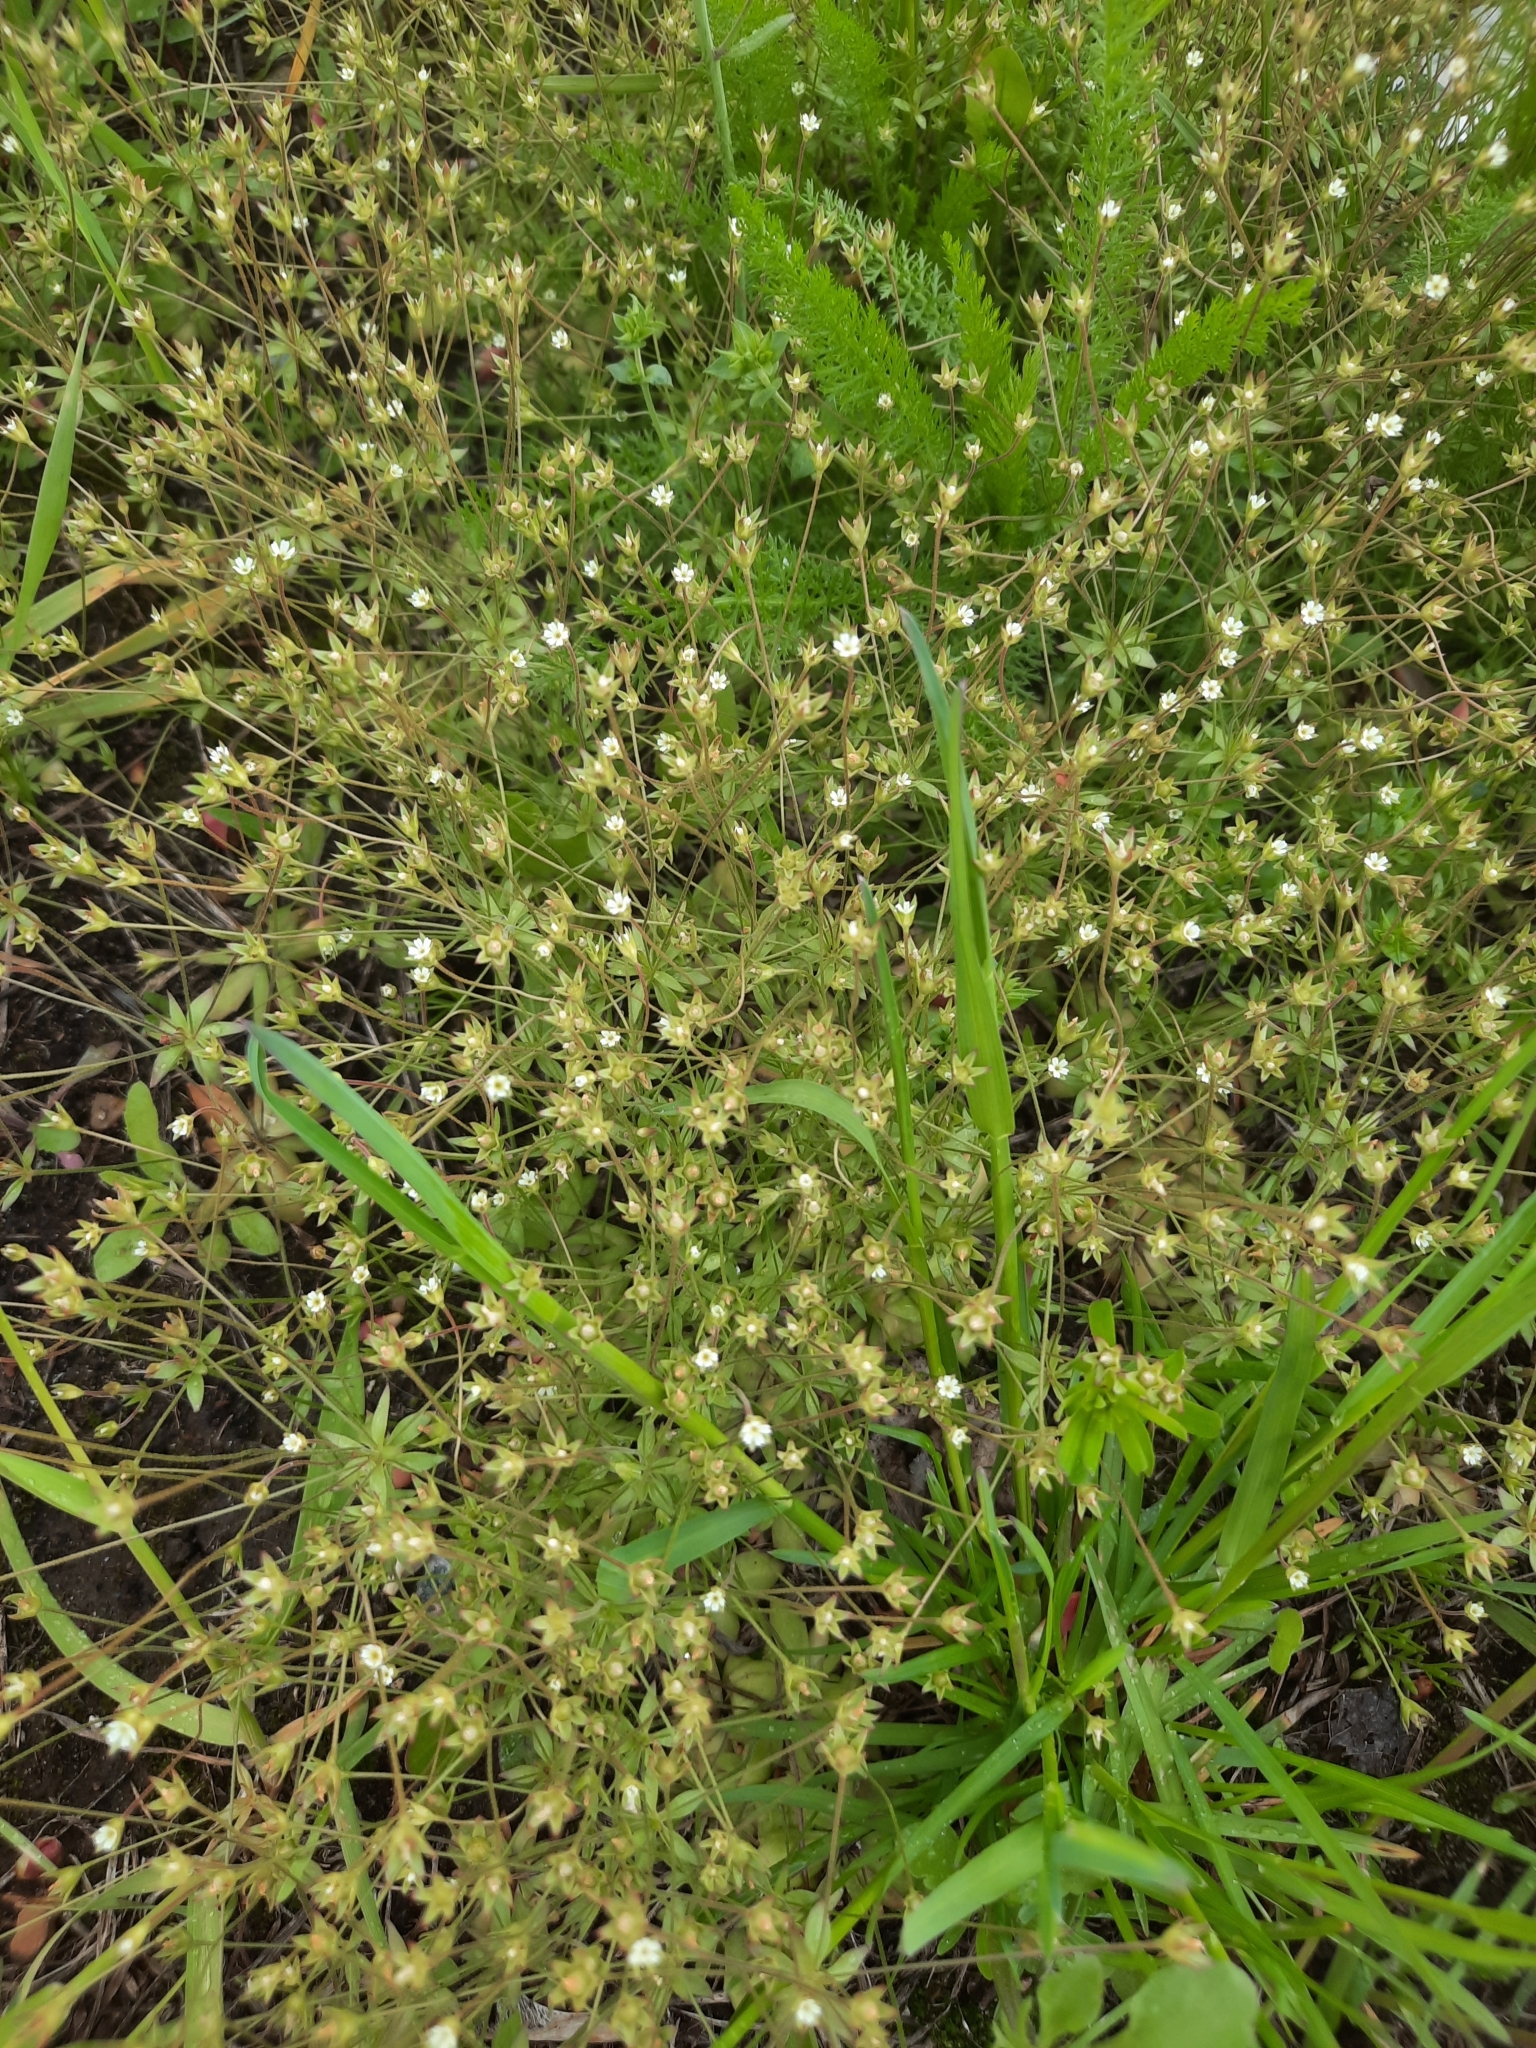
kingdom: Plantae
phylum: Tracheophyta
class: Magnoliopsida
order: Ericales
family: Primulaceae
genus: Androsace
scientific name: Androsace elongata
